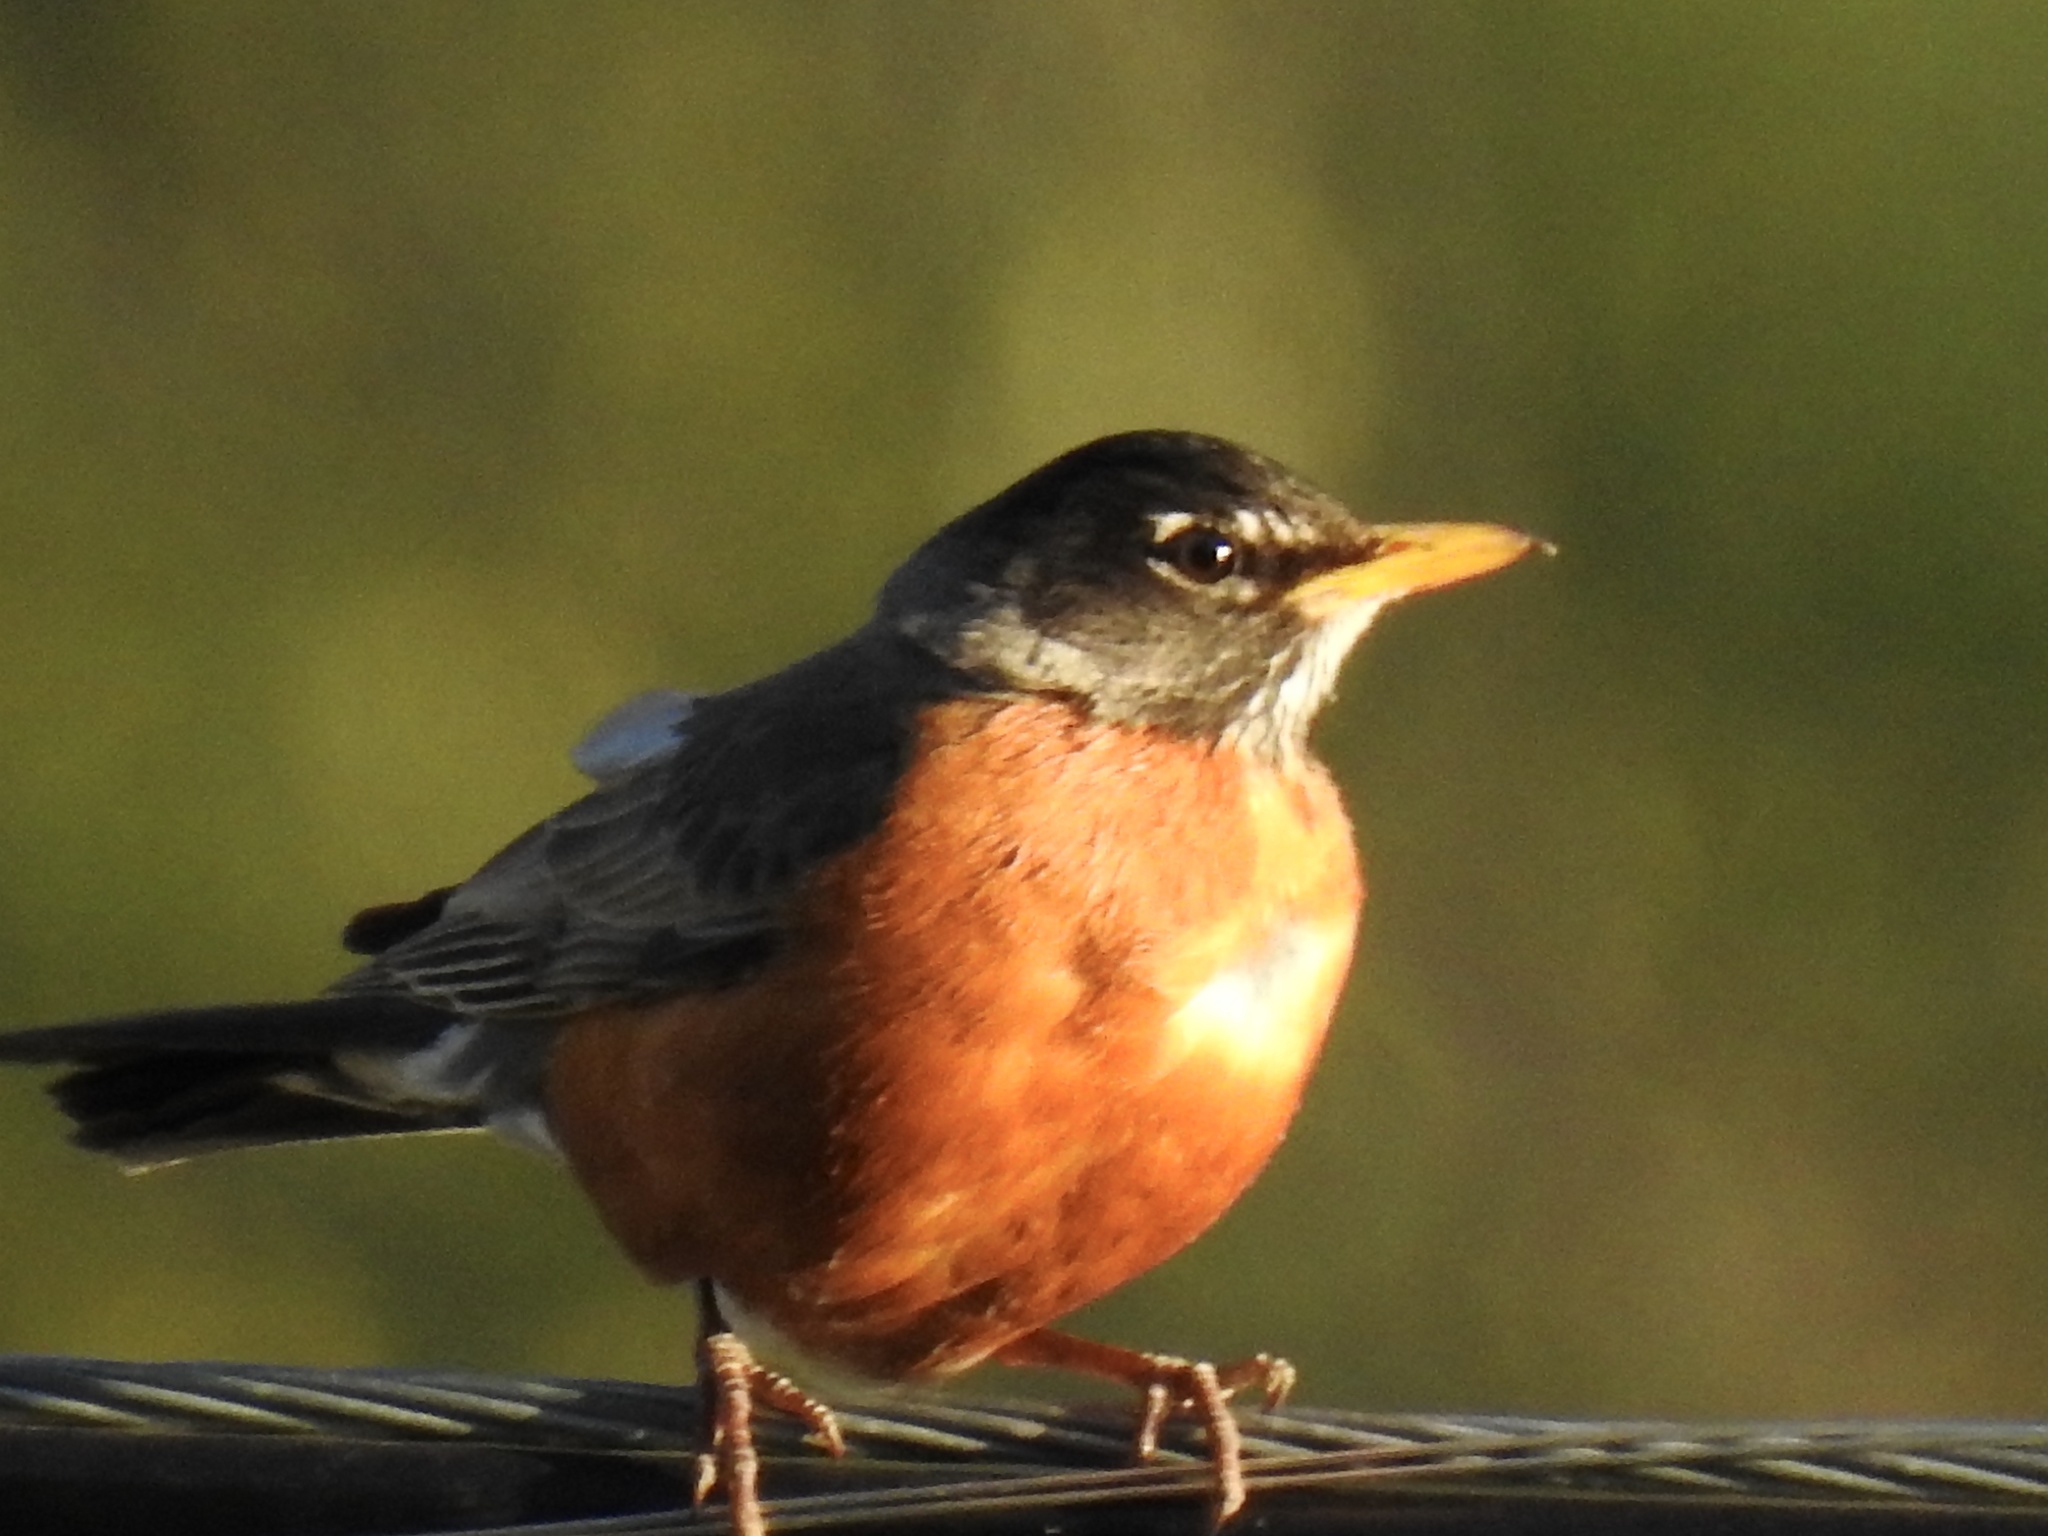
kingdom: Animalia
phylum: Chordata
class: Aves
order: Passeriformes
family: Turdidae
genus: Turdus
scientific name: Turdus migratorius
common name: American robin
